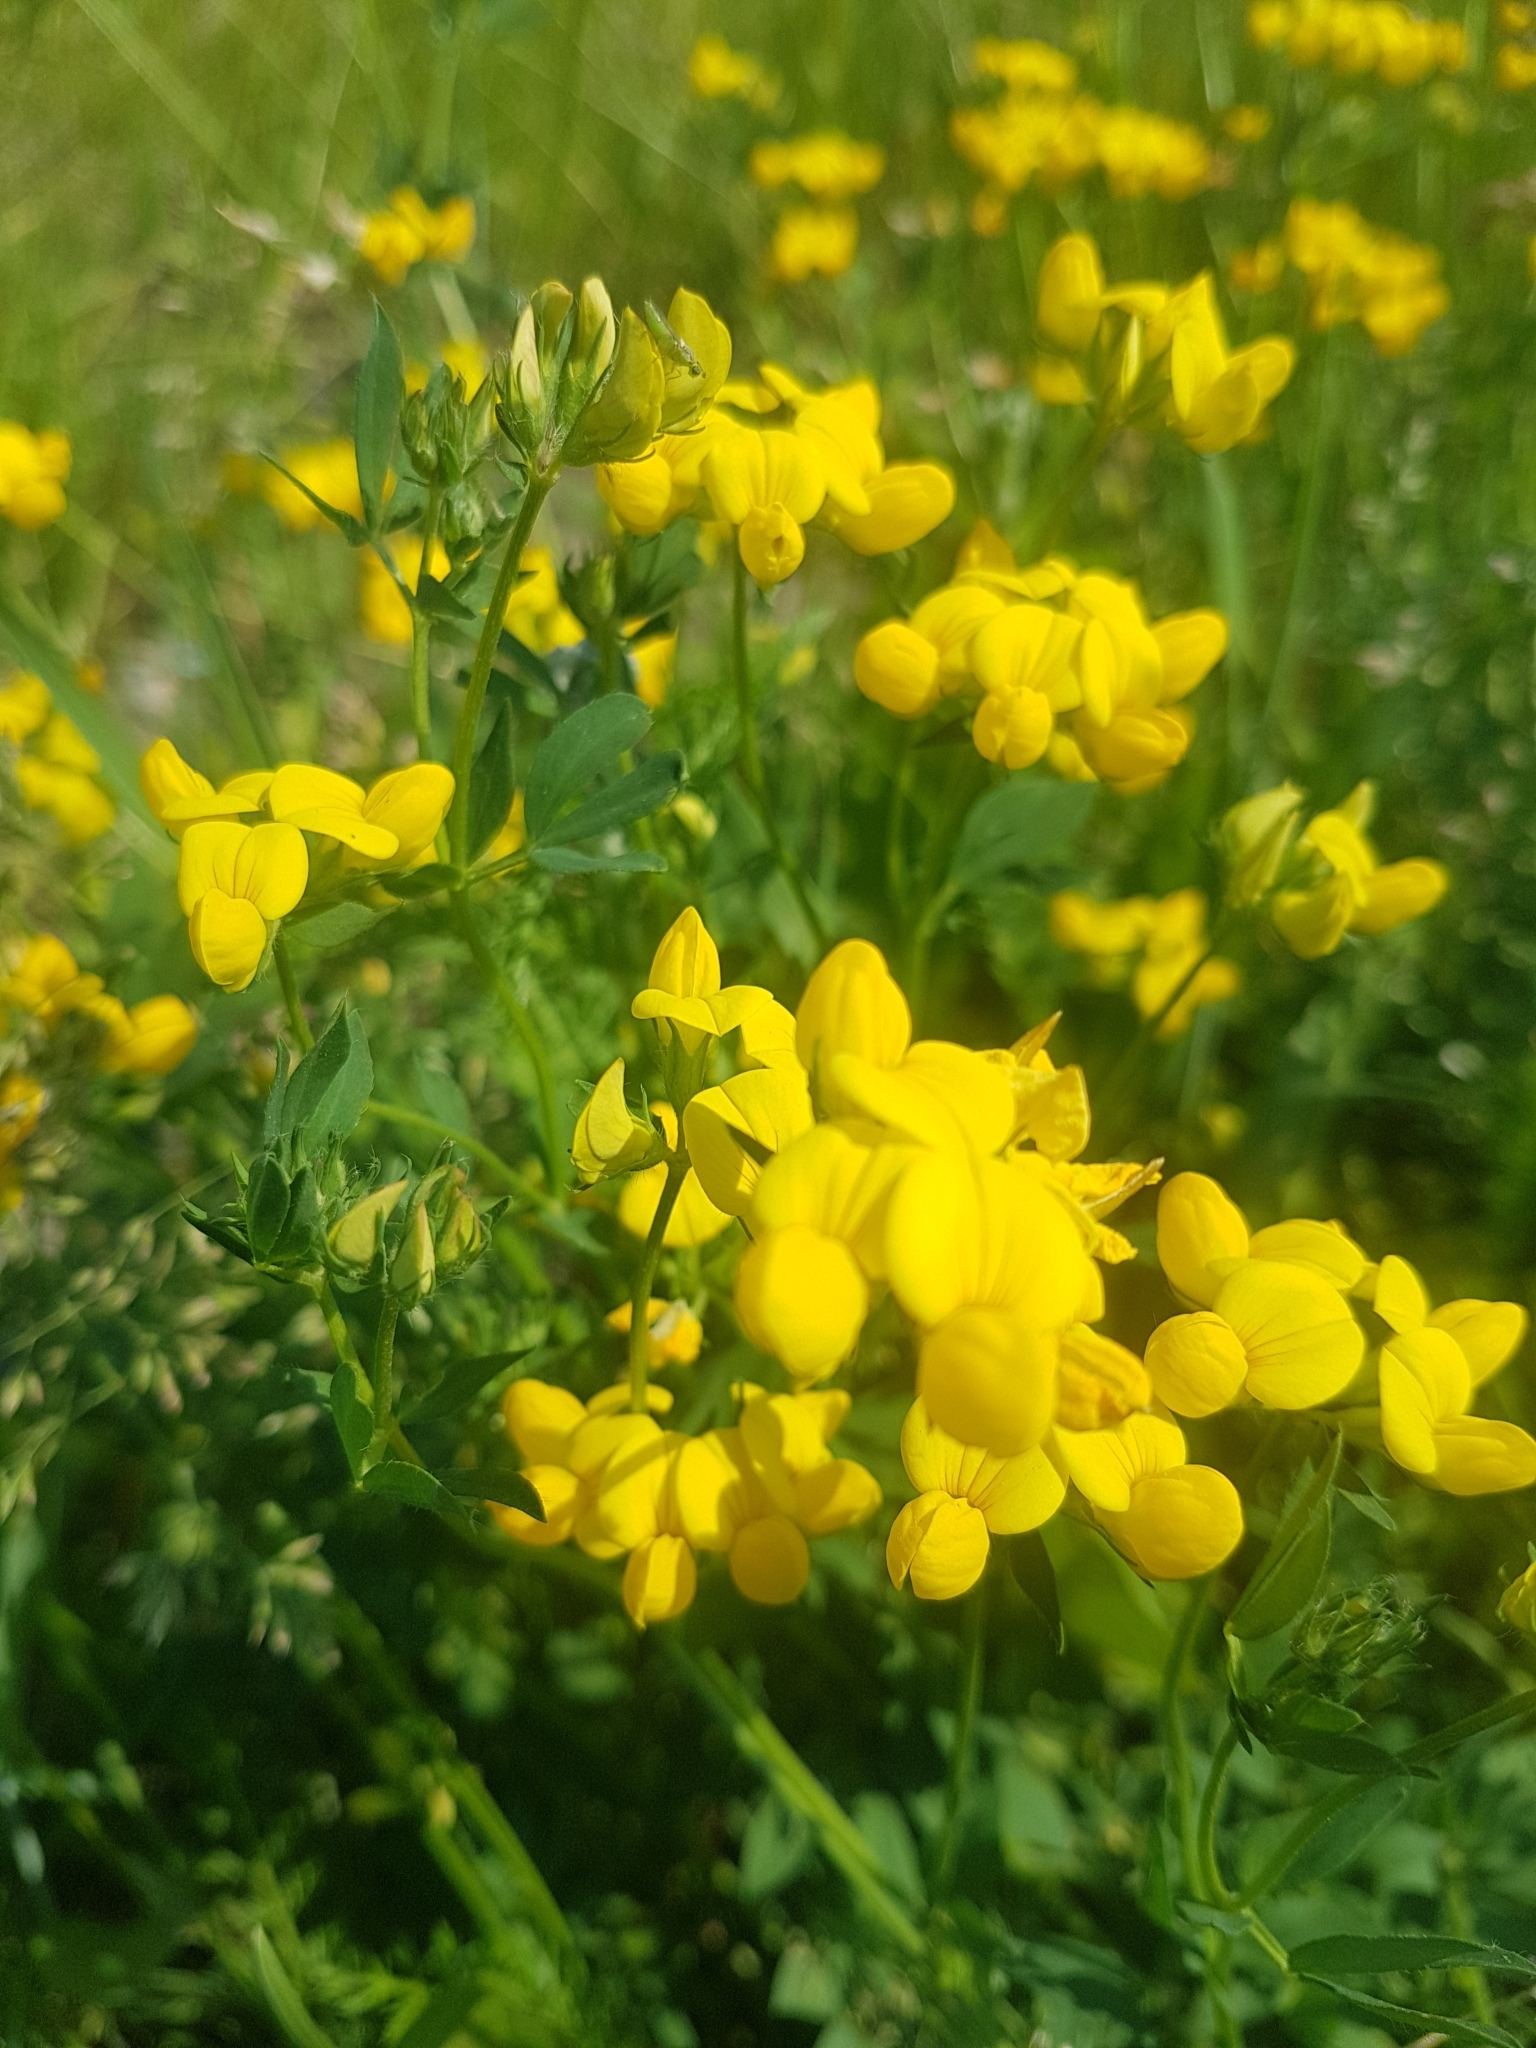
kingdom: Plantae
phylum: Tracheophyta
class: Magnoliopsida
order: Fabales
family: Fabaceae
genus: Lotus
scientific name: Lotus corniculatus
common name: Common bird's-foot-trefoil
